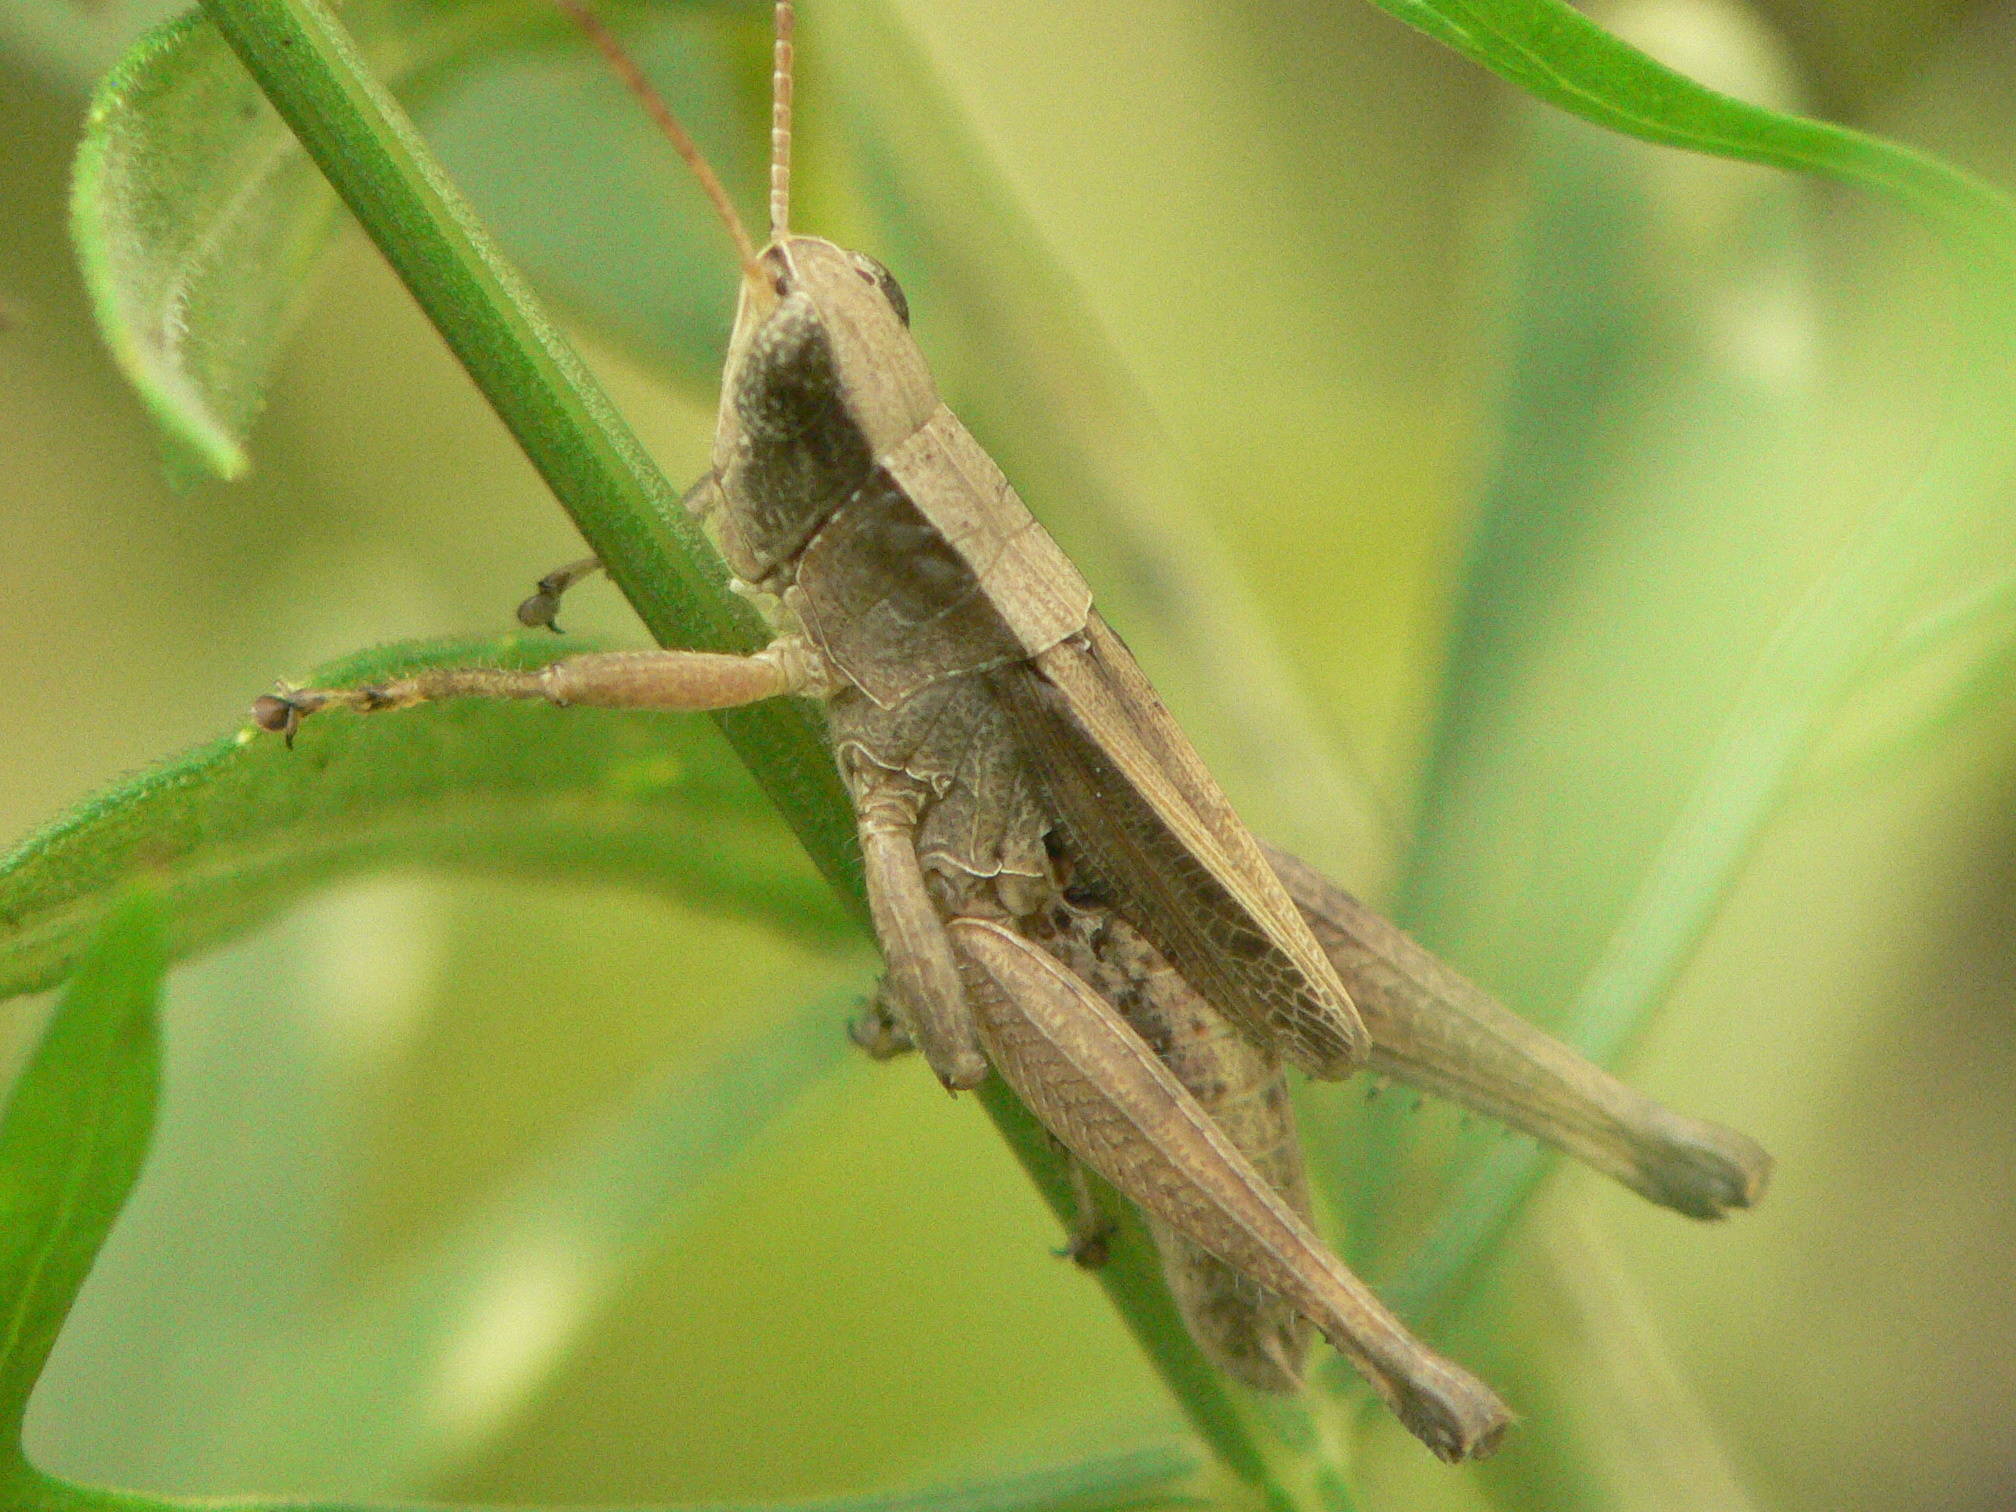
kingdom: Animalia
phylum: Arthropoda
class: Insecta
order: Orthoptera
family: Acrididae
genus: Dichromorpha
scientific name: Dichromorpha viridis
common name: Short-winged green grasshopper
